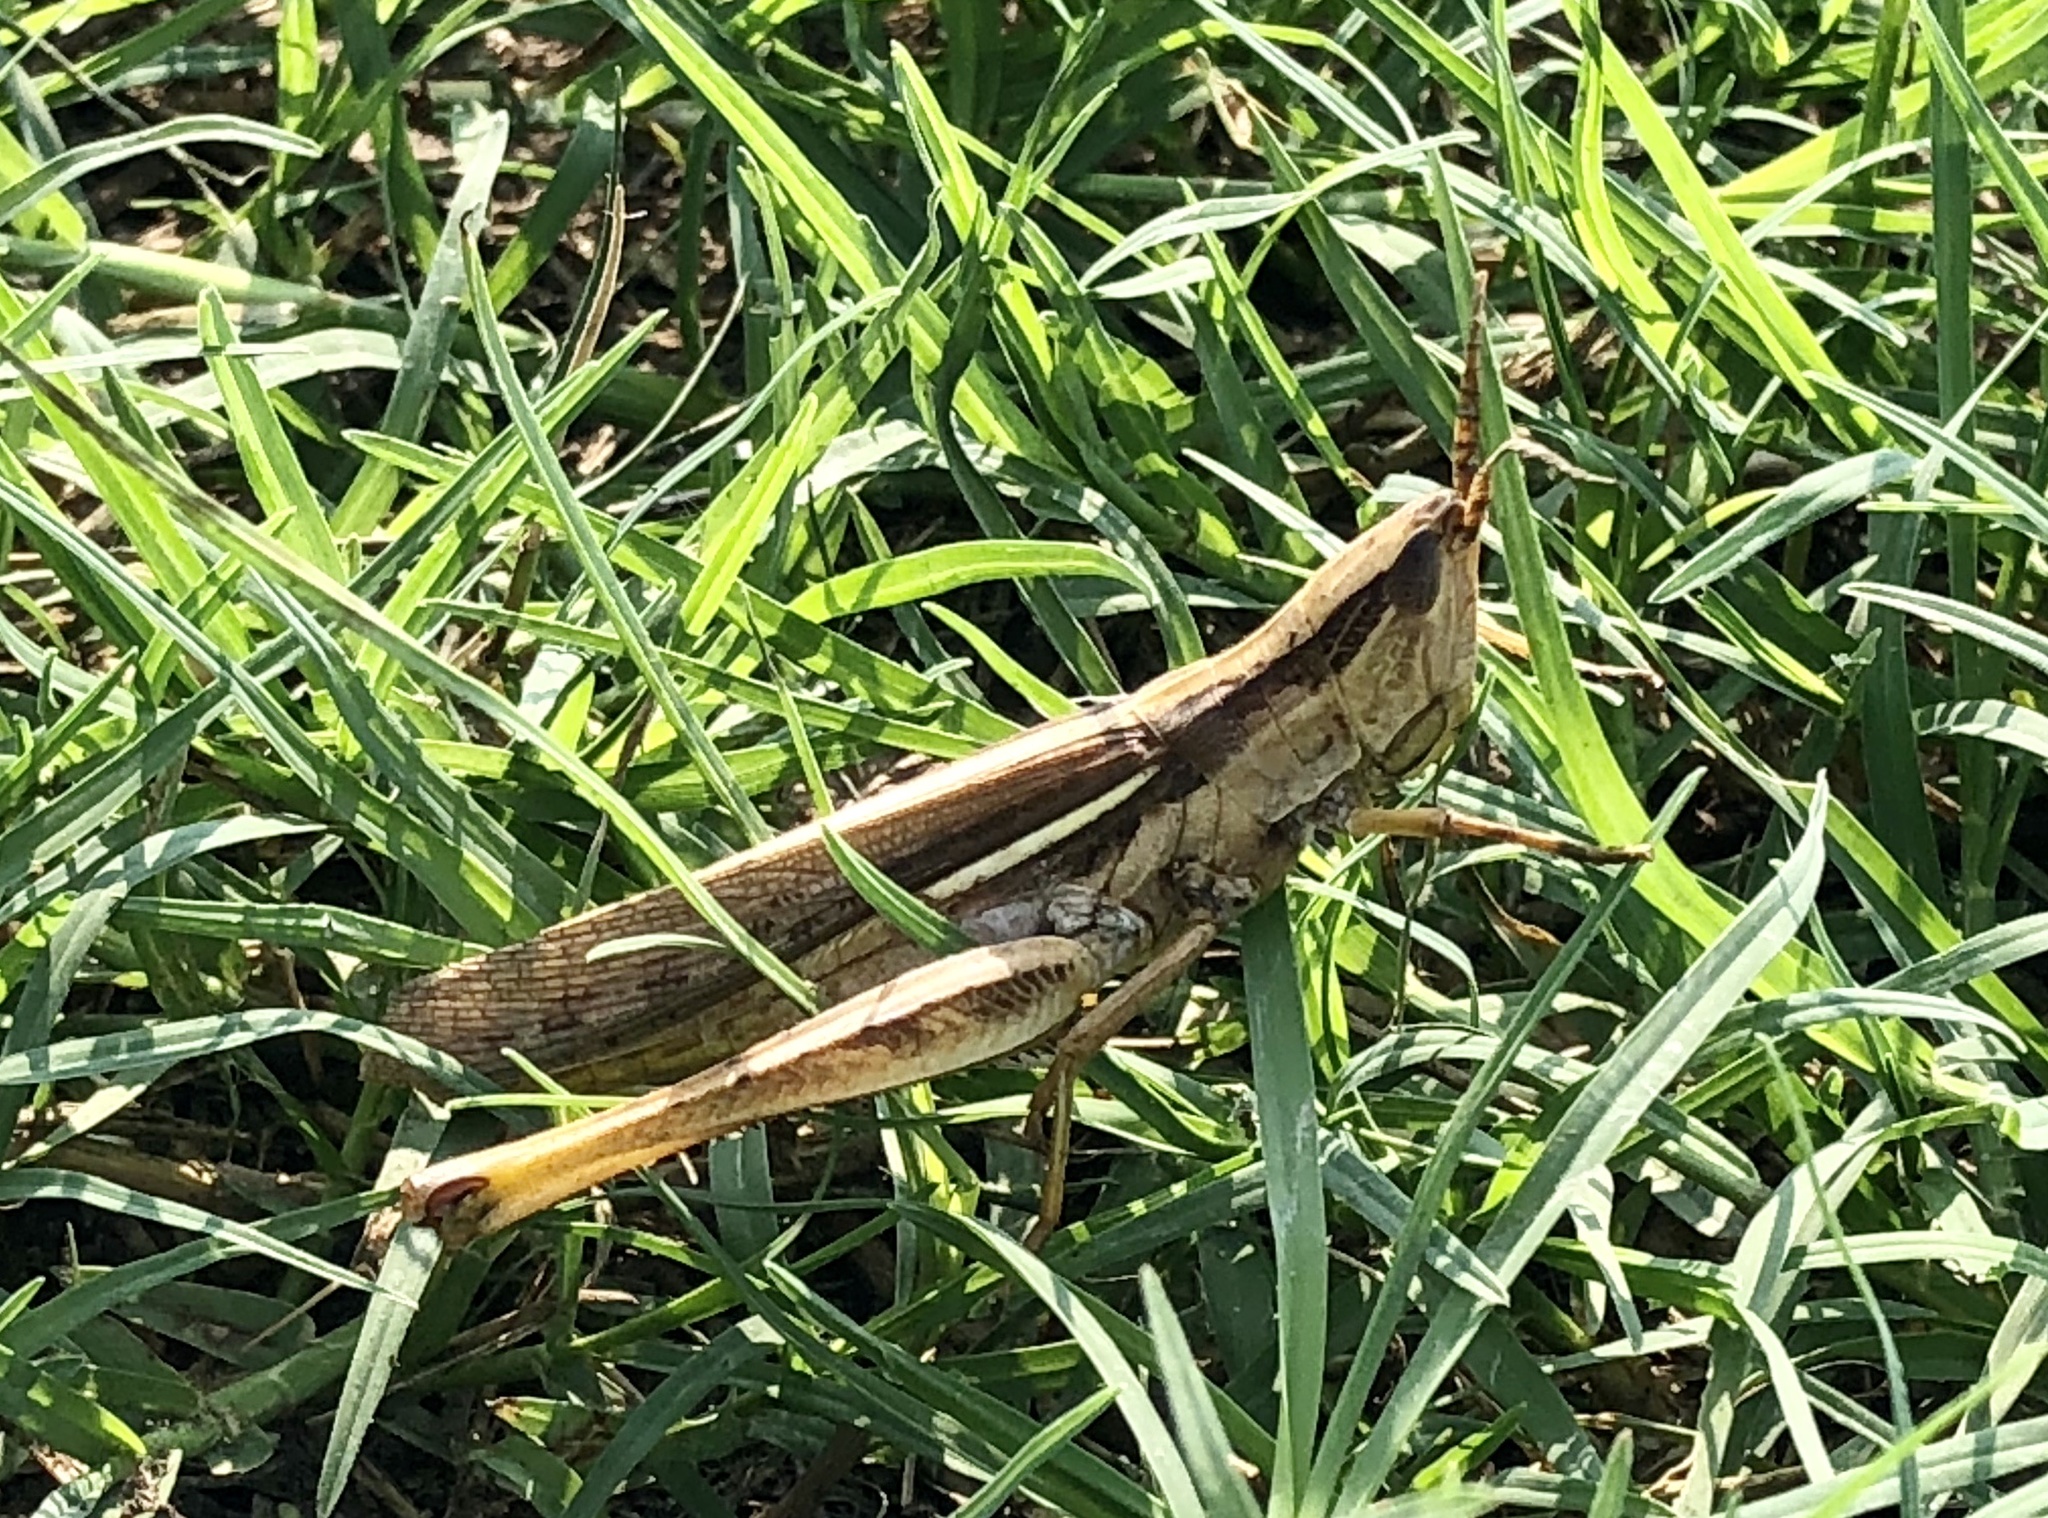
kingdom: Animalia
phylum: Arthropoda
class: Insecta
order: Orthoptera
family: Acrididae
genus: Mermiria
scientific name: Mermiria bivittata
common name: Two-striped mermiria grasshopper
